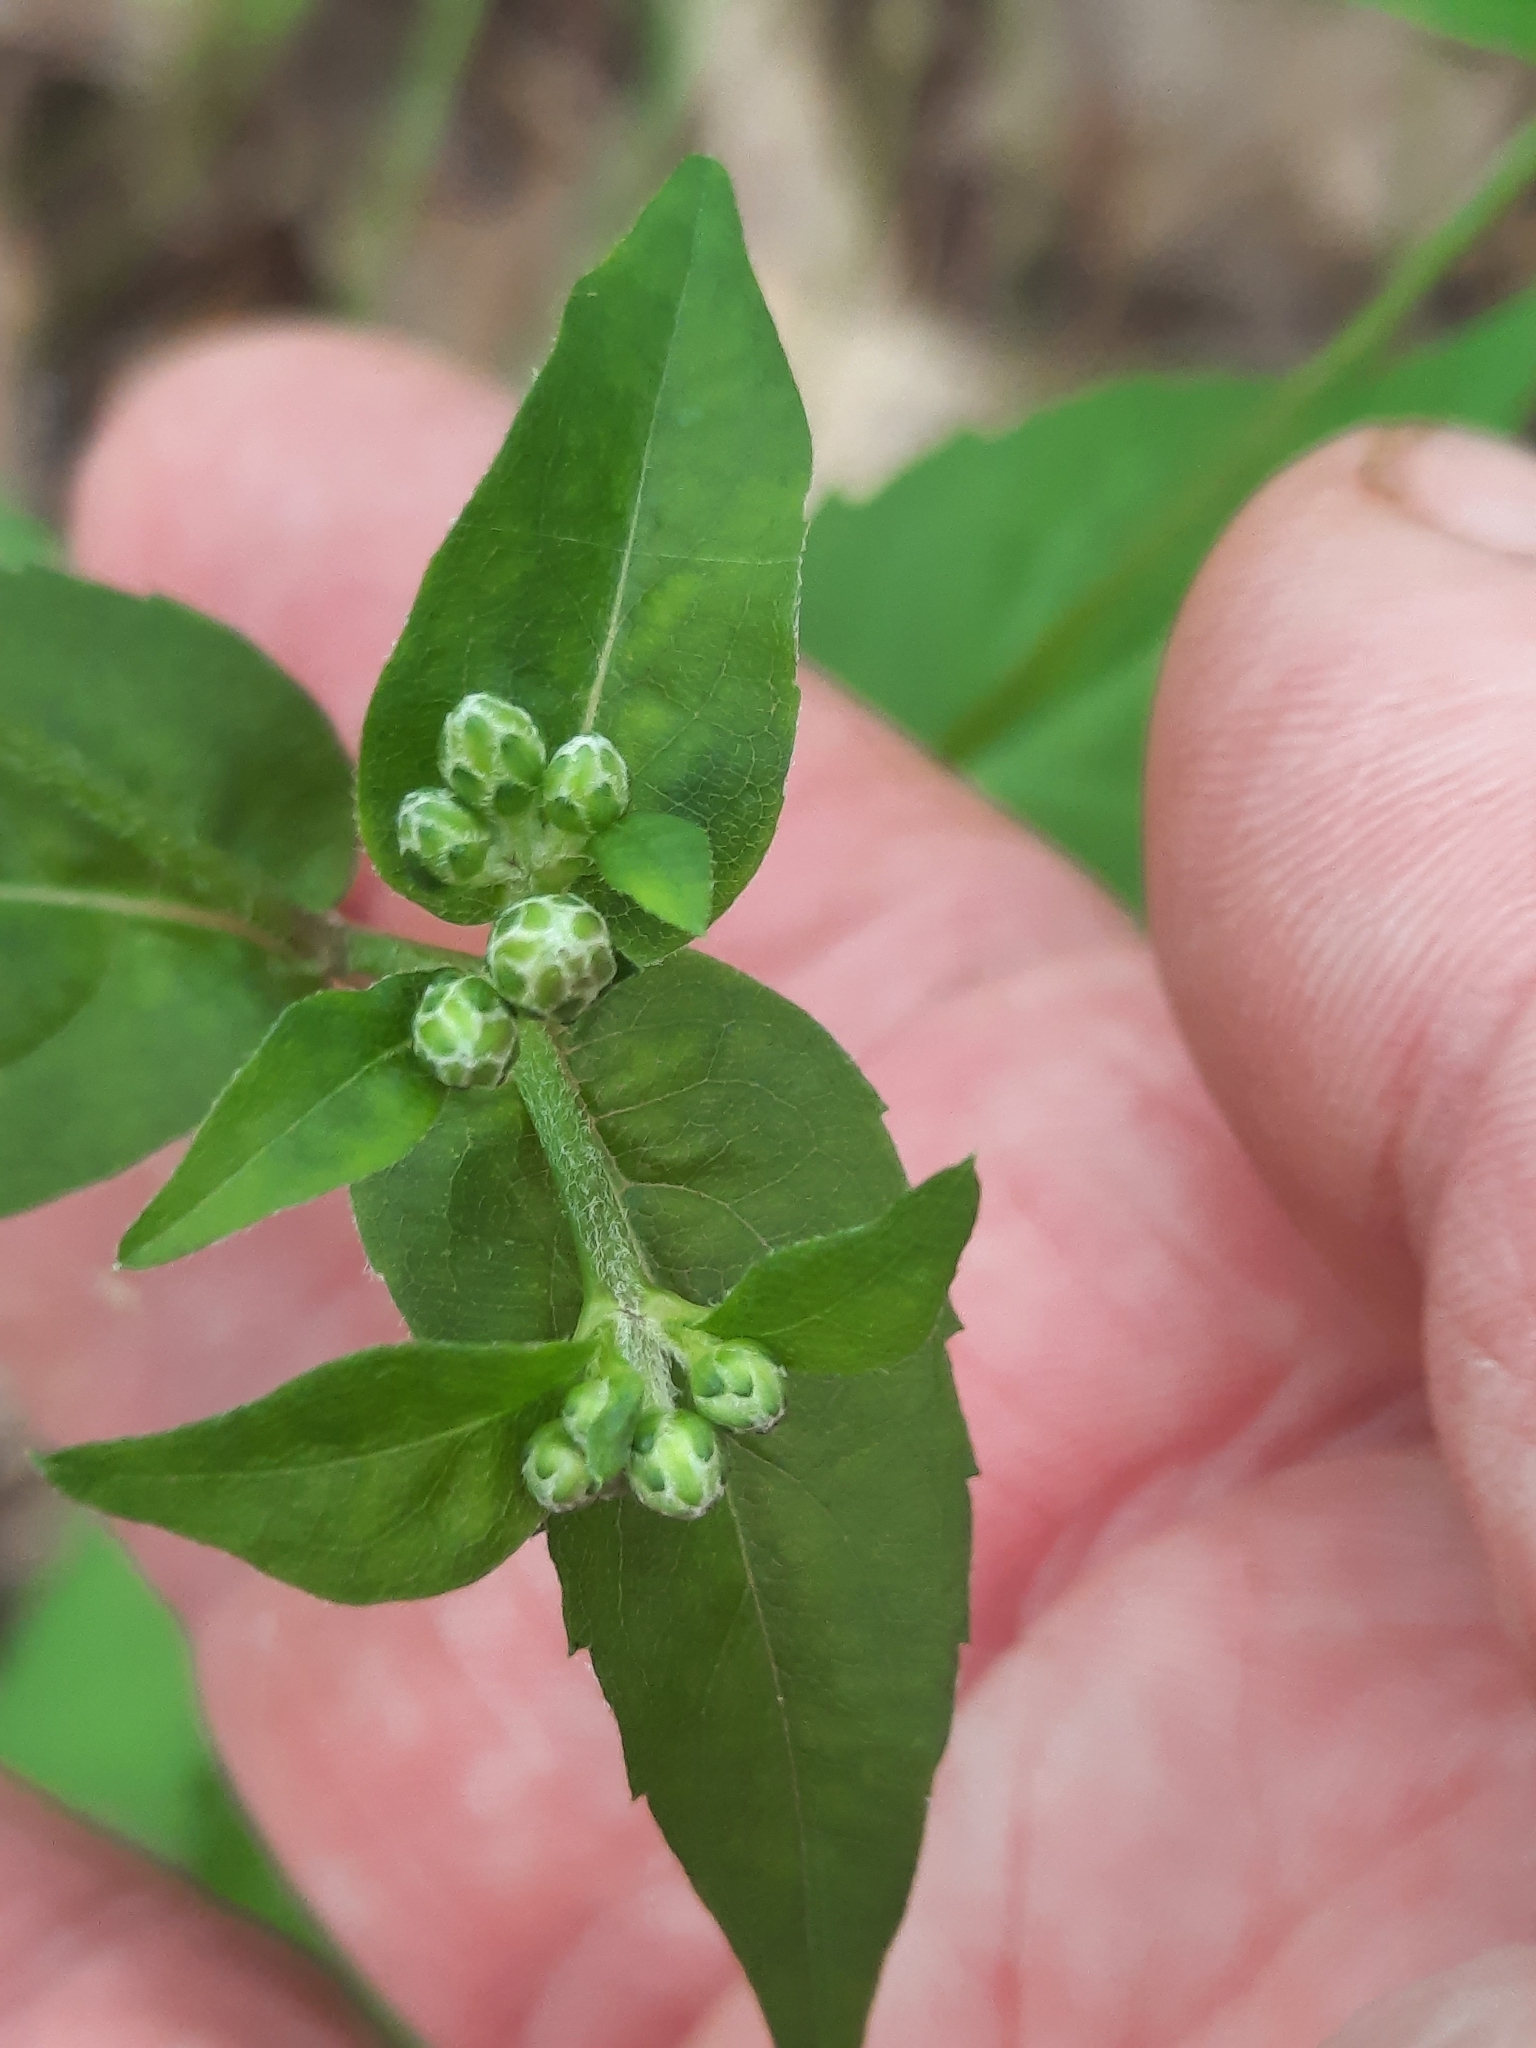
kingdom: Plantae
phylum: Tracheophyta
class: Magnoliopsida
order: Asterales
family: Asteraceae
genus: Eurybia
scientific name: Eurybia divaricata
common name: White wood aster
